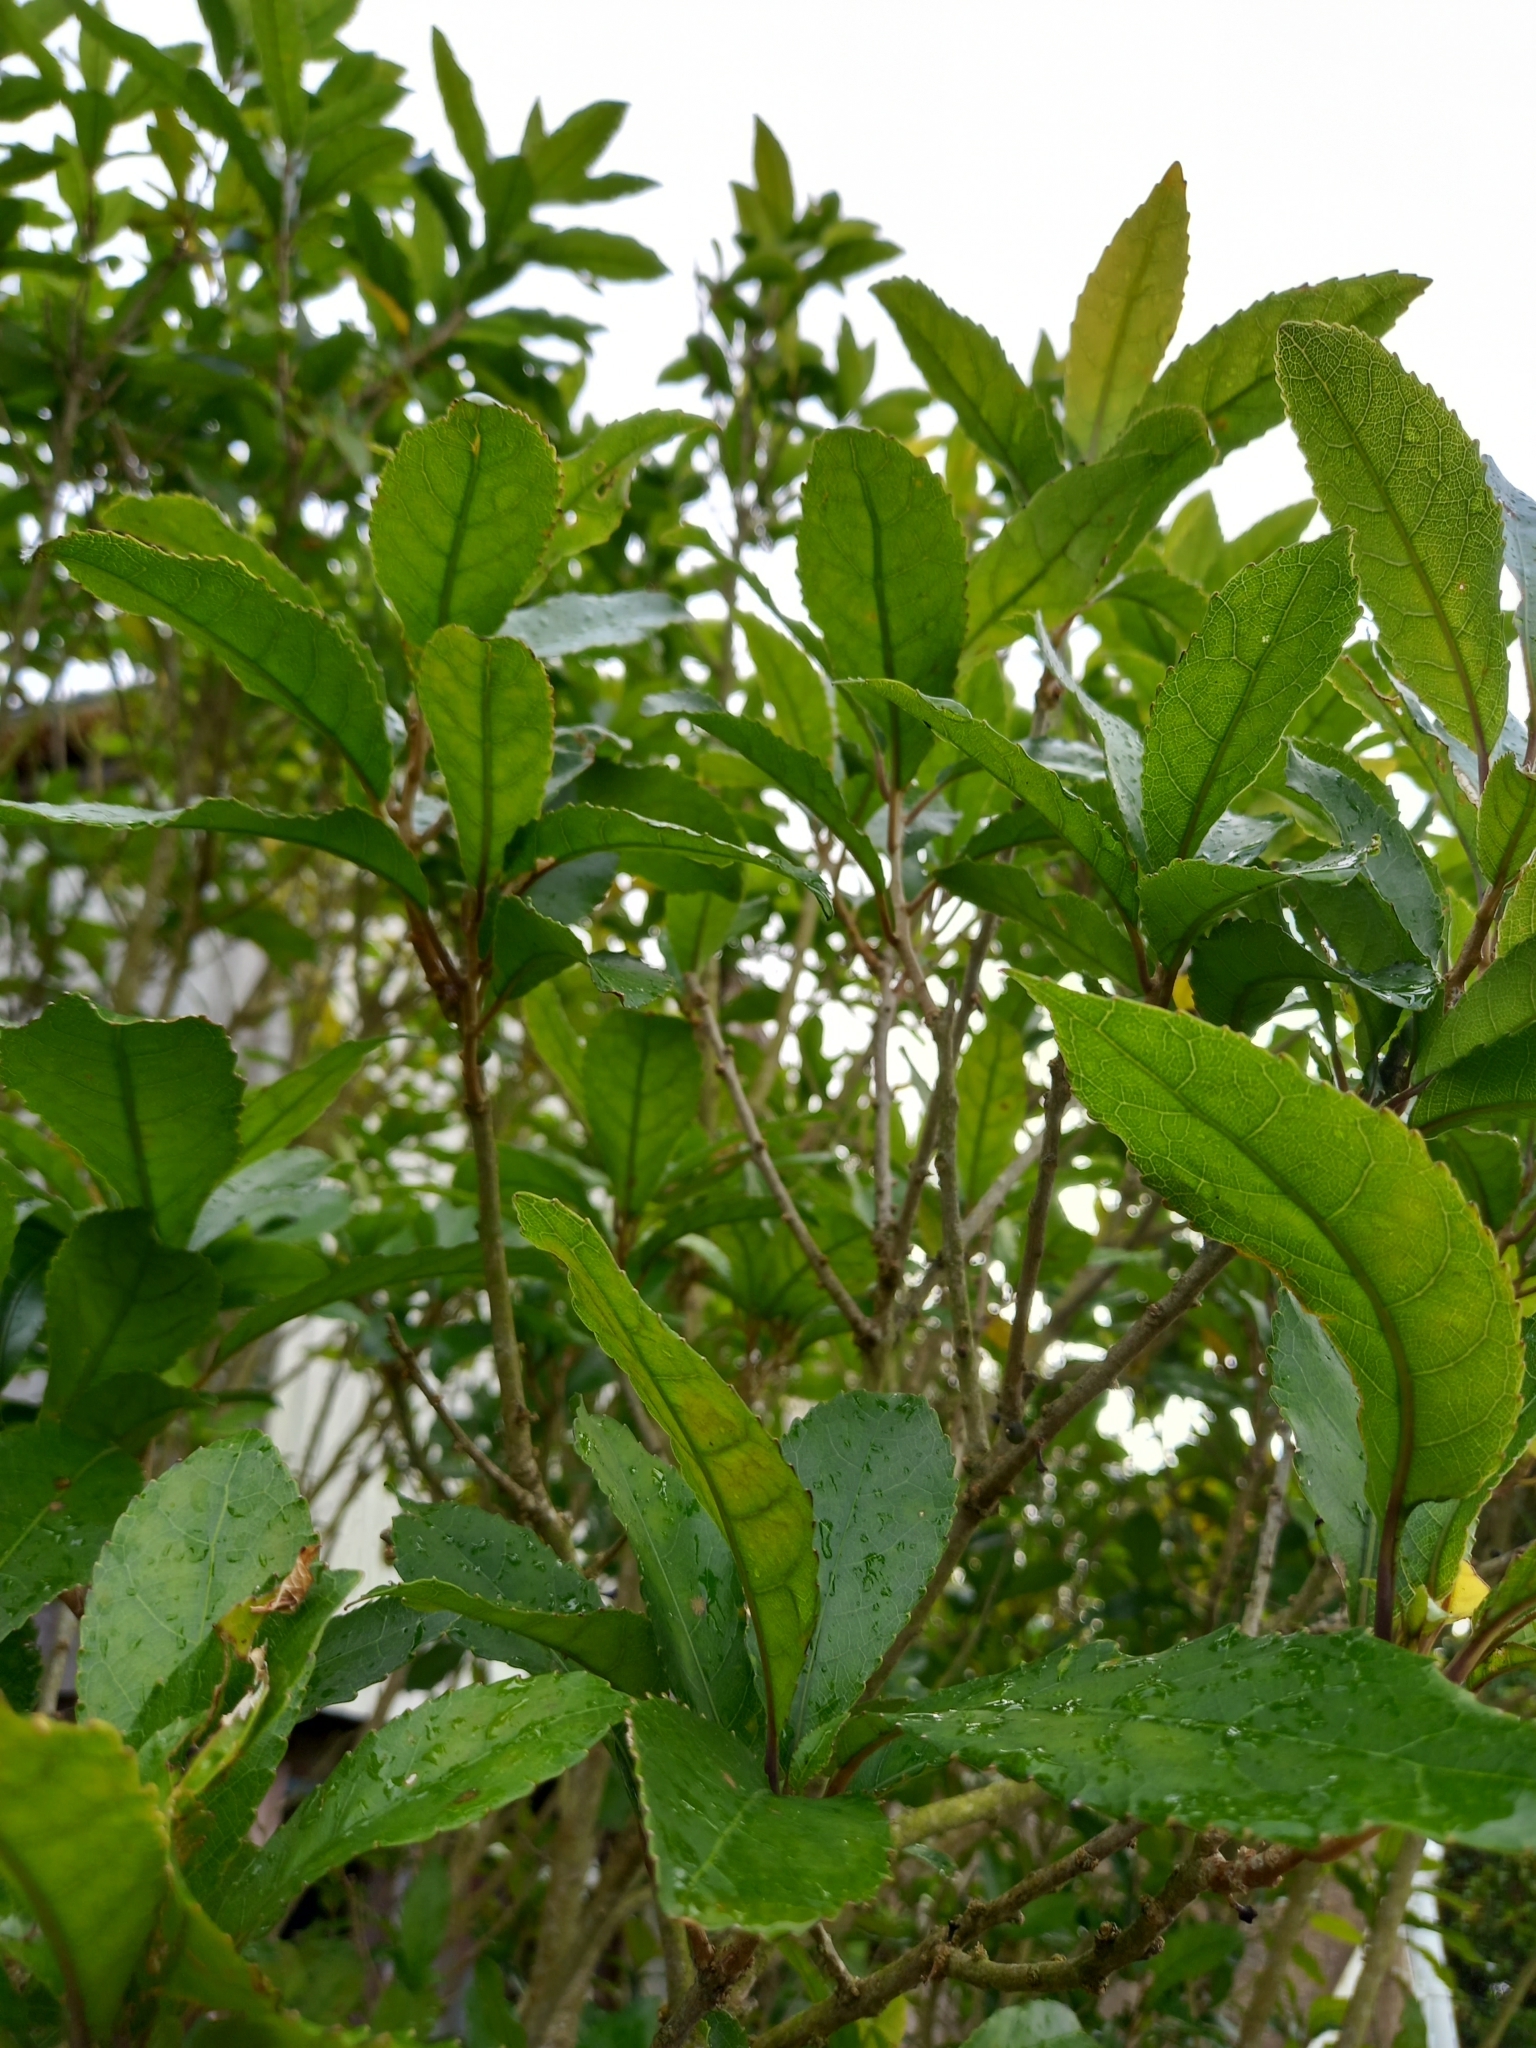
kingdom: Plantae
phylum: Tracheophyta
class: Magnoliopsida
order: Malpighiales
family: Violaceae
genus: Melicytus
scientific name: Melicytus ramiflorus
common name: Mahoe
